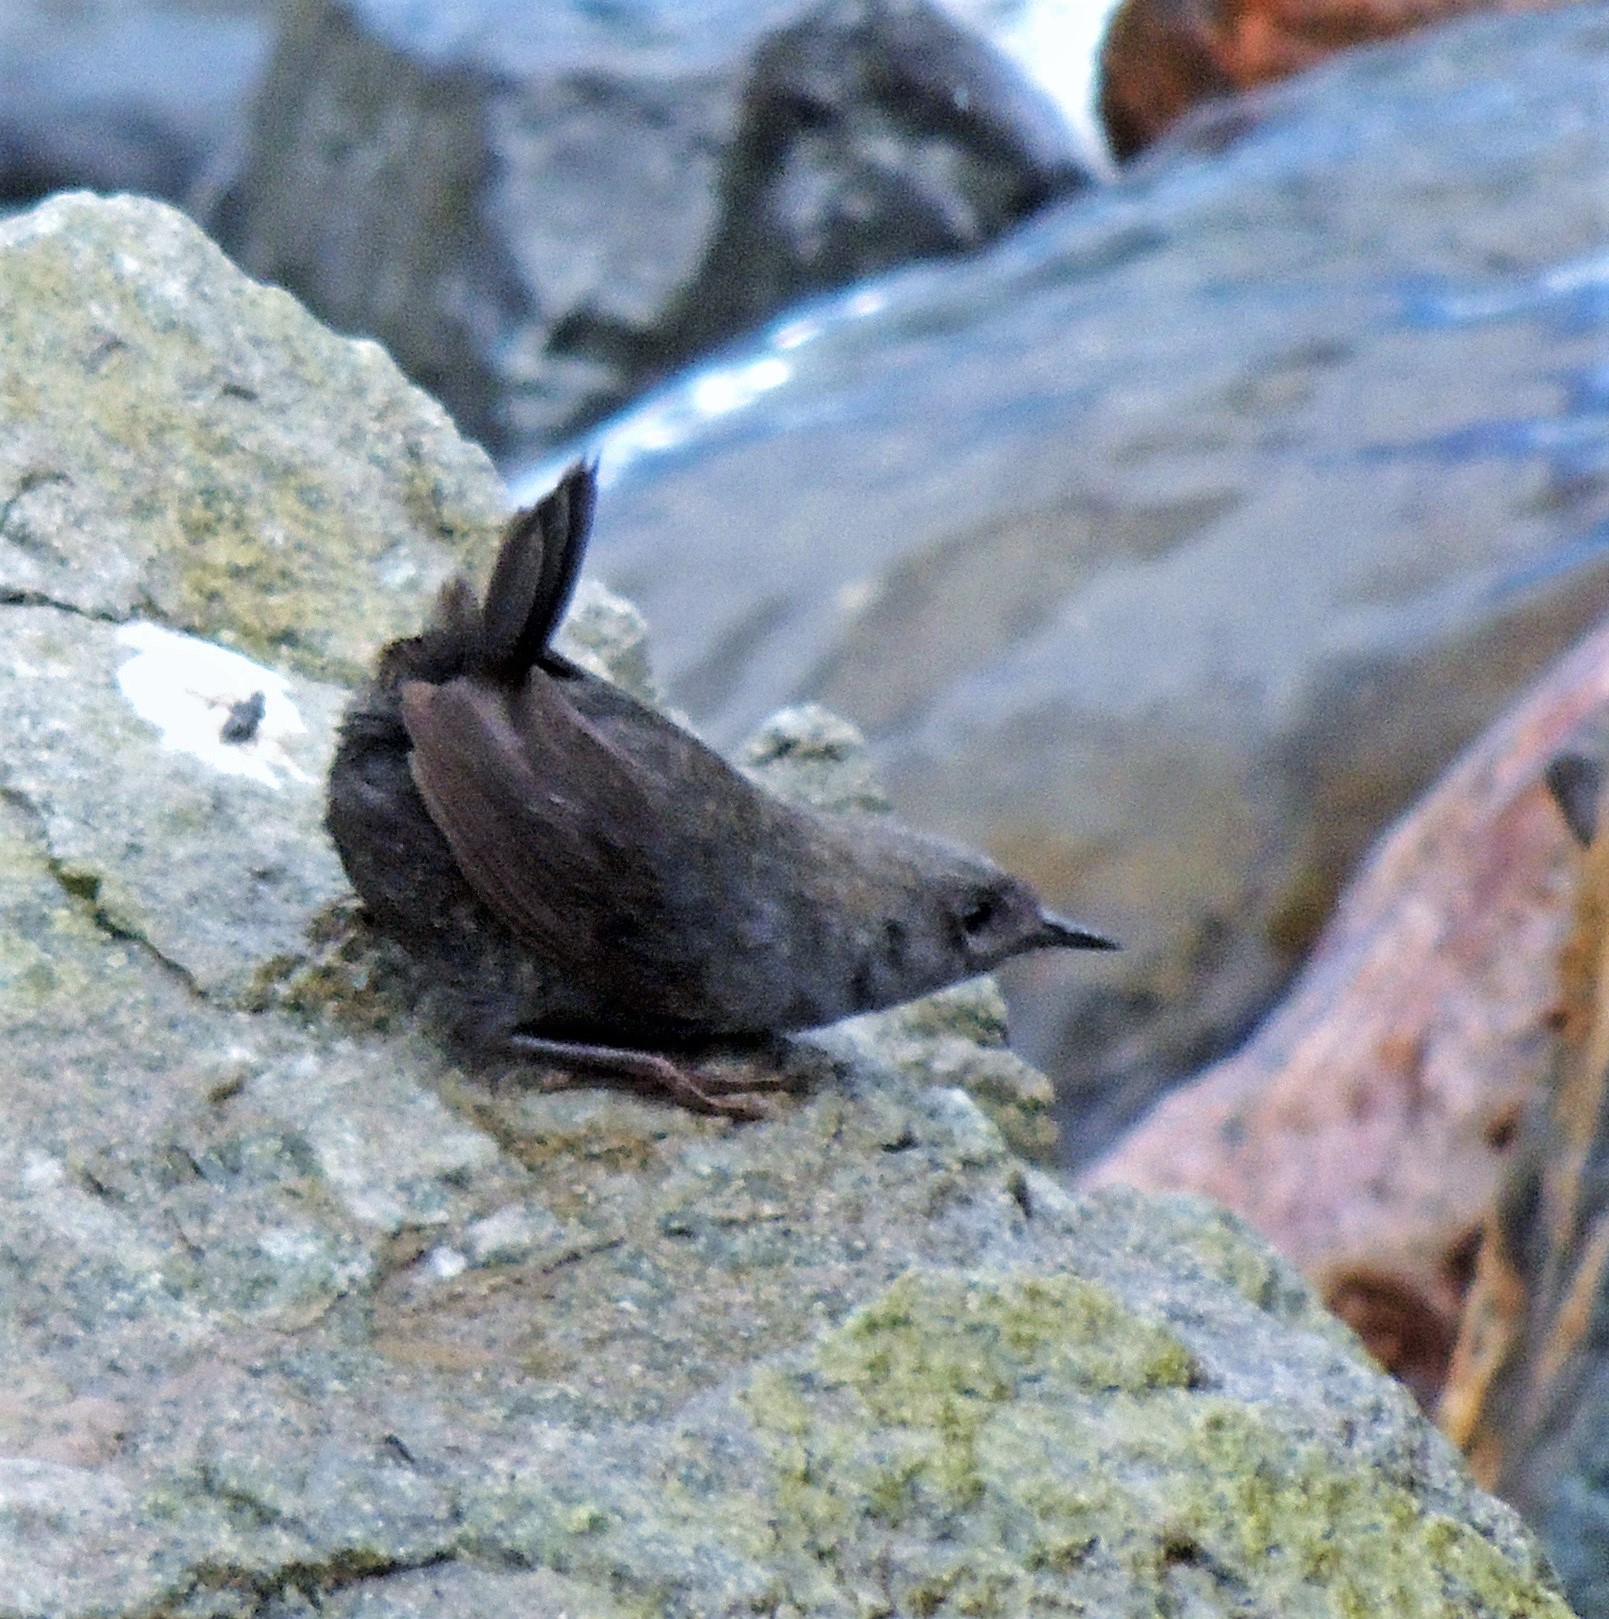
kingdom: Animalia
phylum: Chordata
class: Aves
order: Passeriformes
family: Rhinocryptidae
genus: Scytalopus
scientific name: Scytalopus magellanicus
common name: Magellanic tapaculo
